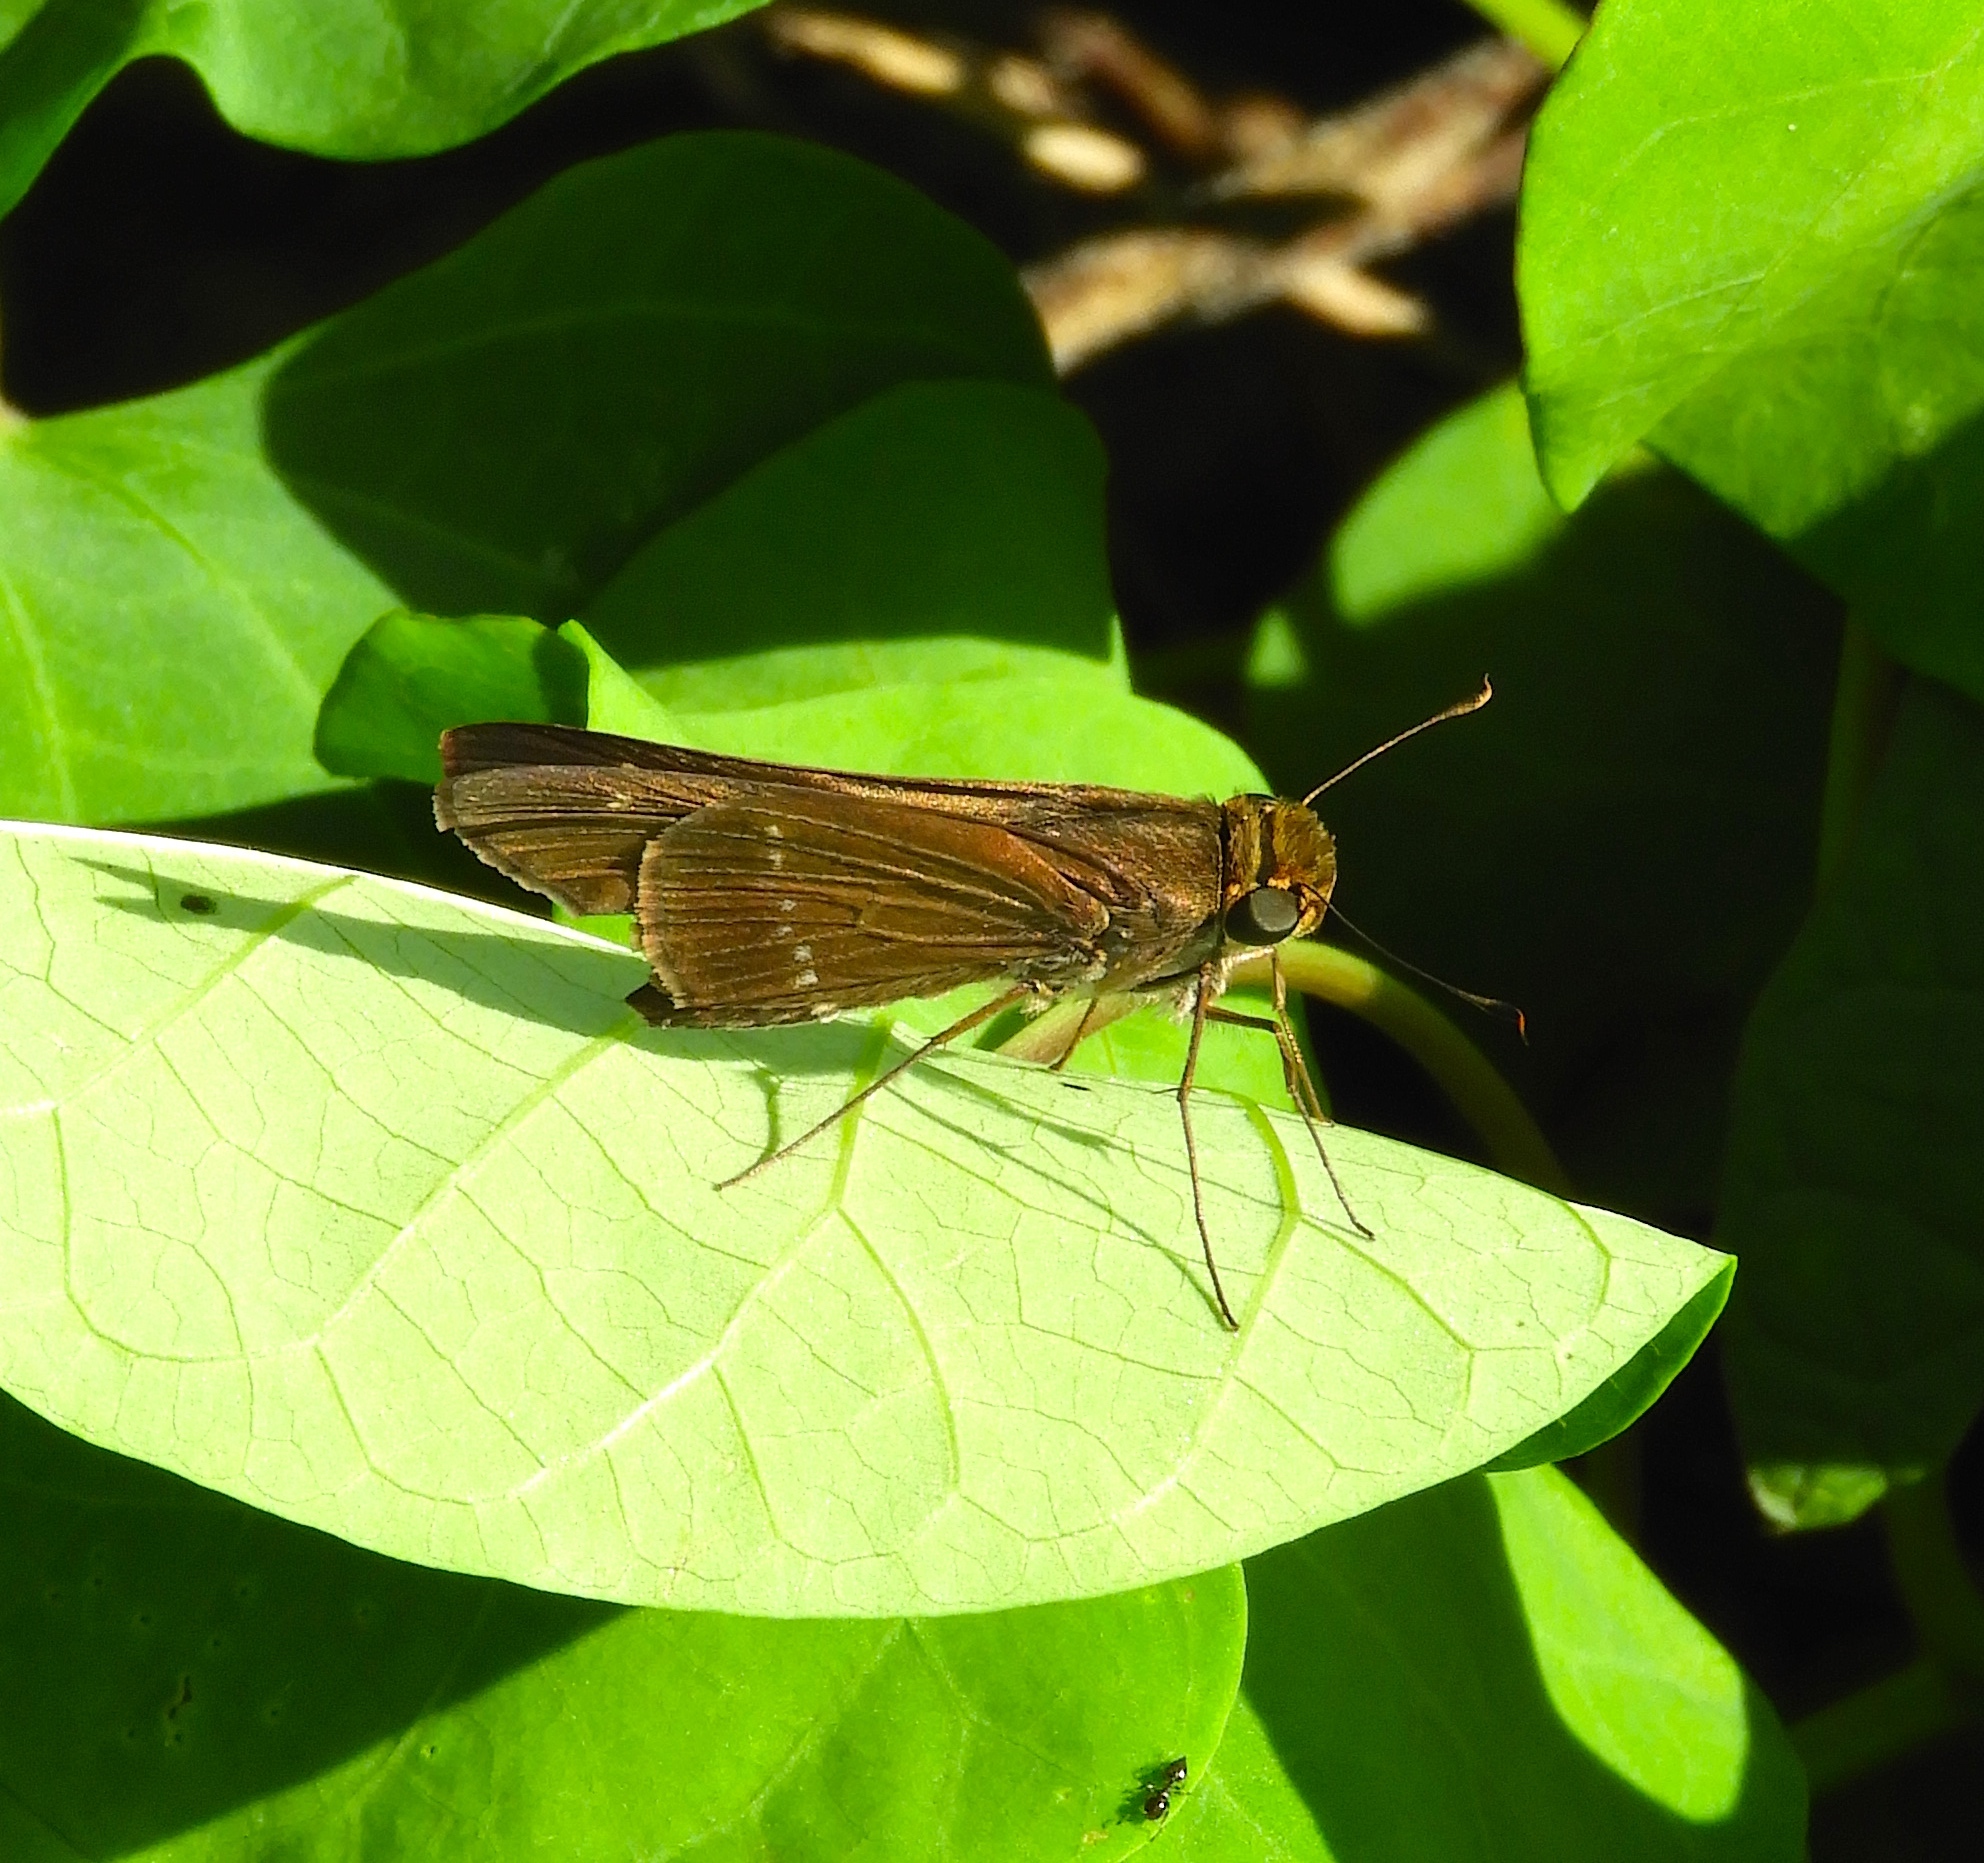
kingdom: Animalia
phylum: Arthropoda
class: Insecta
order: Lepidoptera
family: Hesperiidae
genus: Turesis
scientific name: Turesis lucas
